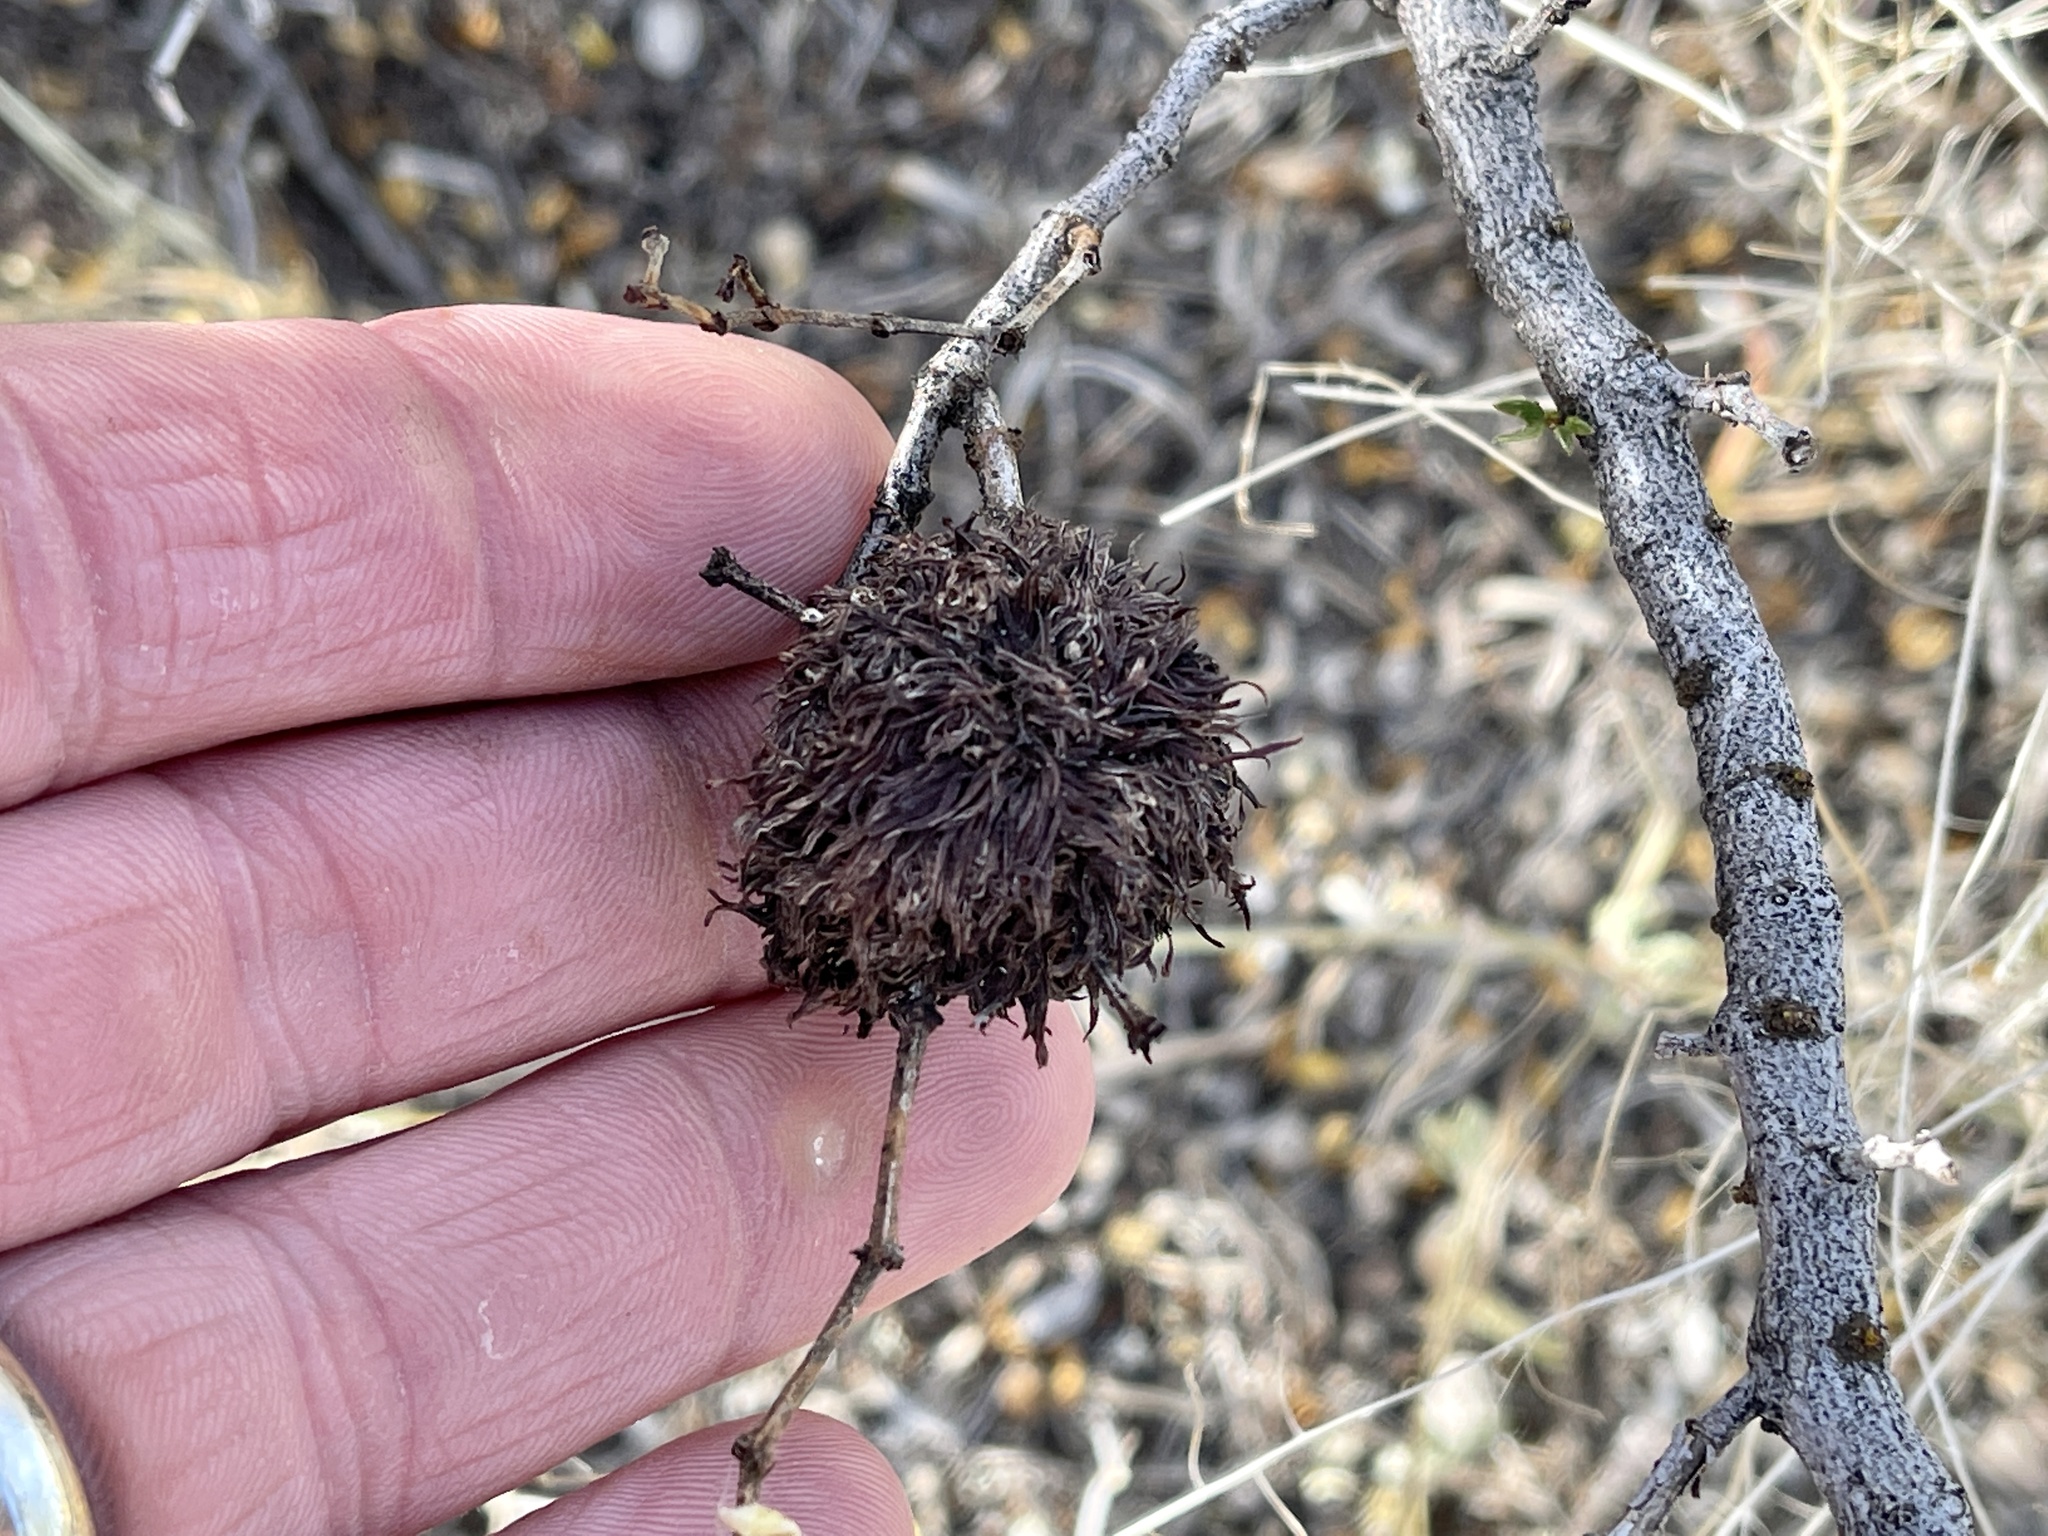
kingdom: Animalia
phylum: Arthropoda
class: Insecta
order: Diptera
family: Cecidomyiidae
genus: Asphondylia
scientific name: Asphondylia auripila
